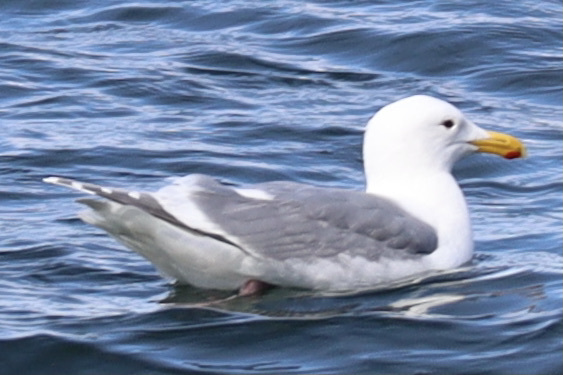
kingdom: Animalia
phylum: Chordata
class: Aves
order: Charadriiformes
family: Laridae
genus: Larus
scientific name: Larus
